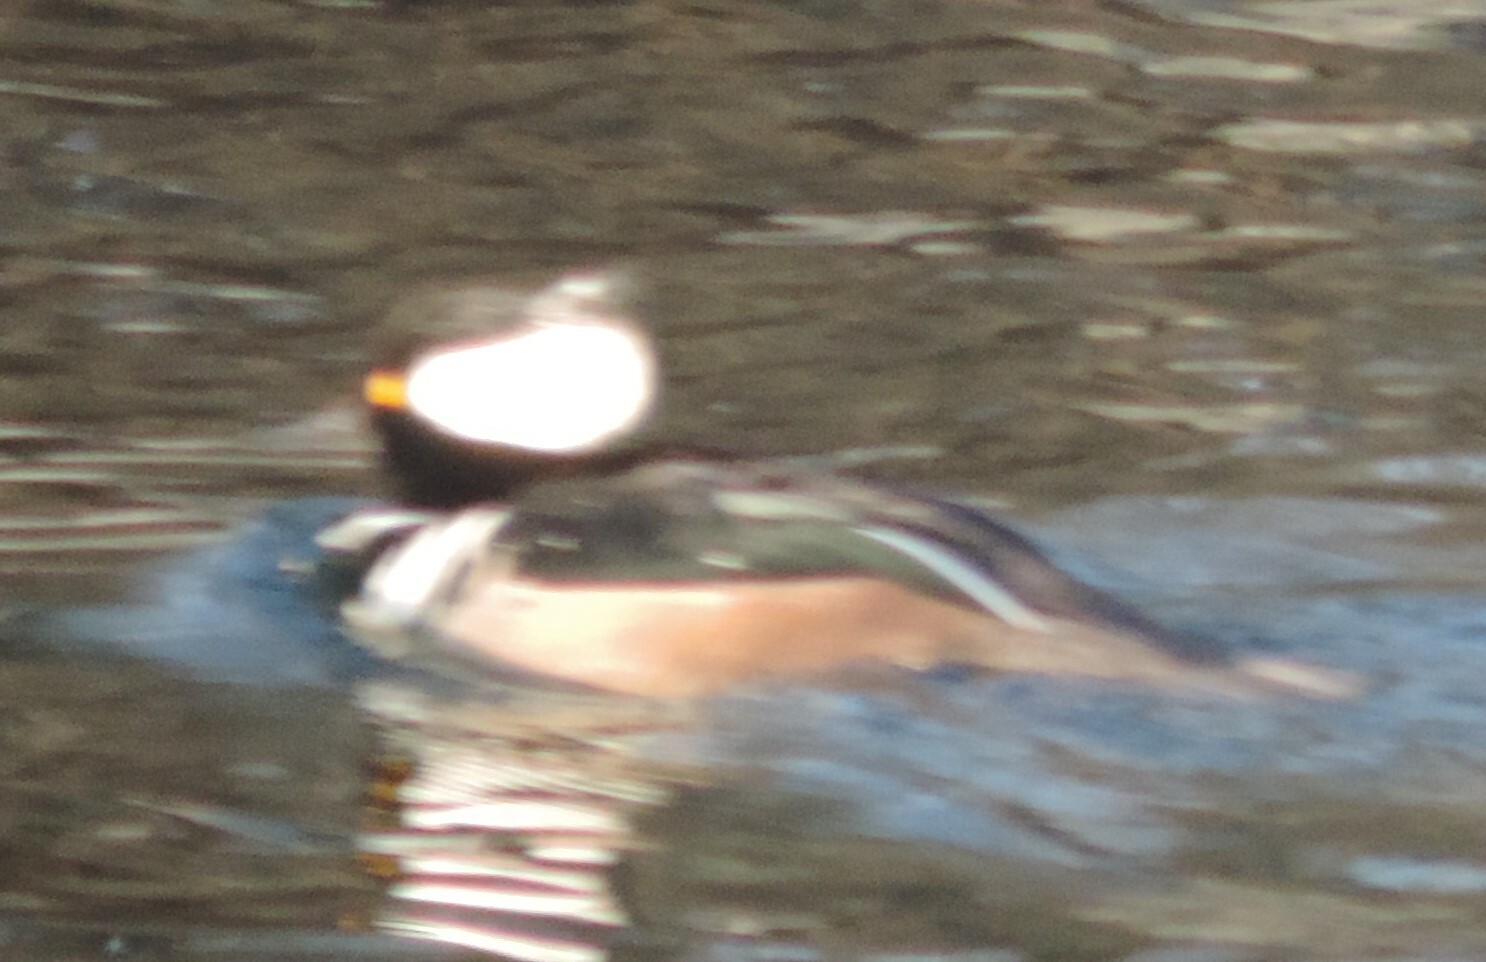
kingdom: Animalia
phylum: Chordata
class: Aves
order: Anseriformes
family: Anatidae
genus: Lophodytes
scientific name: Lophodytes cucullatus
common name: Hooded merganser
